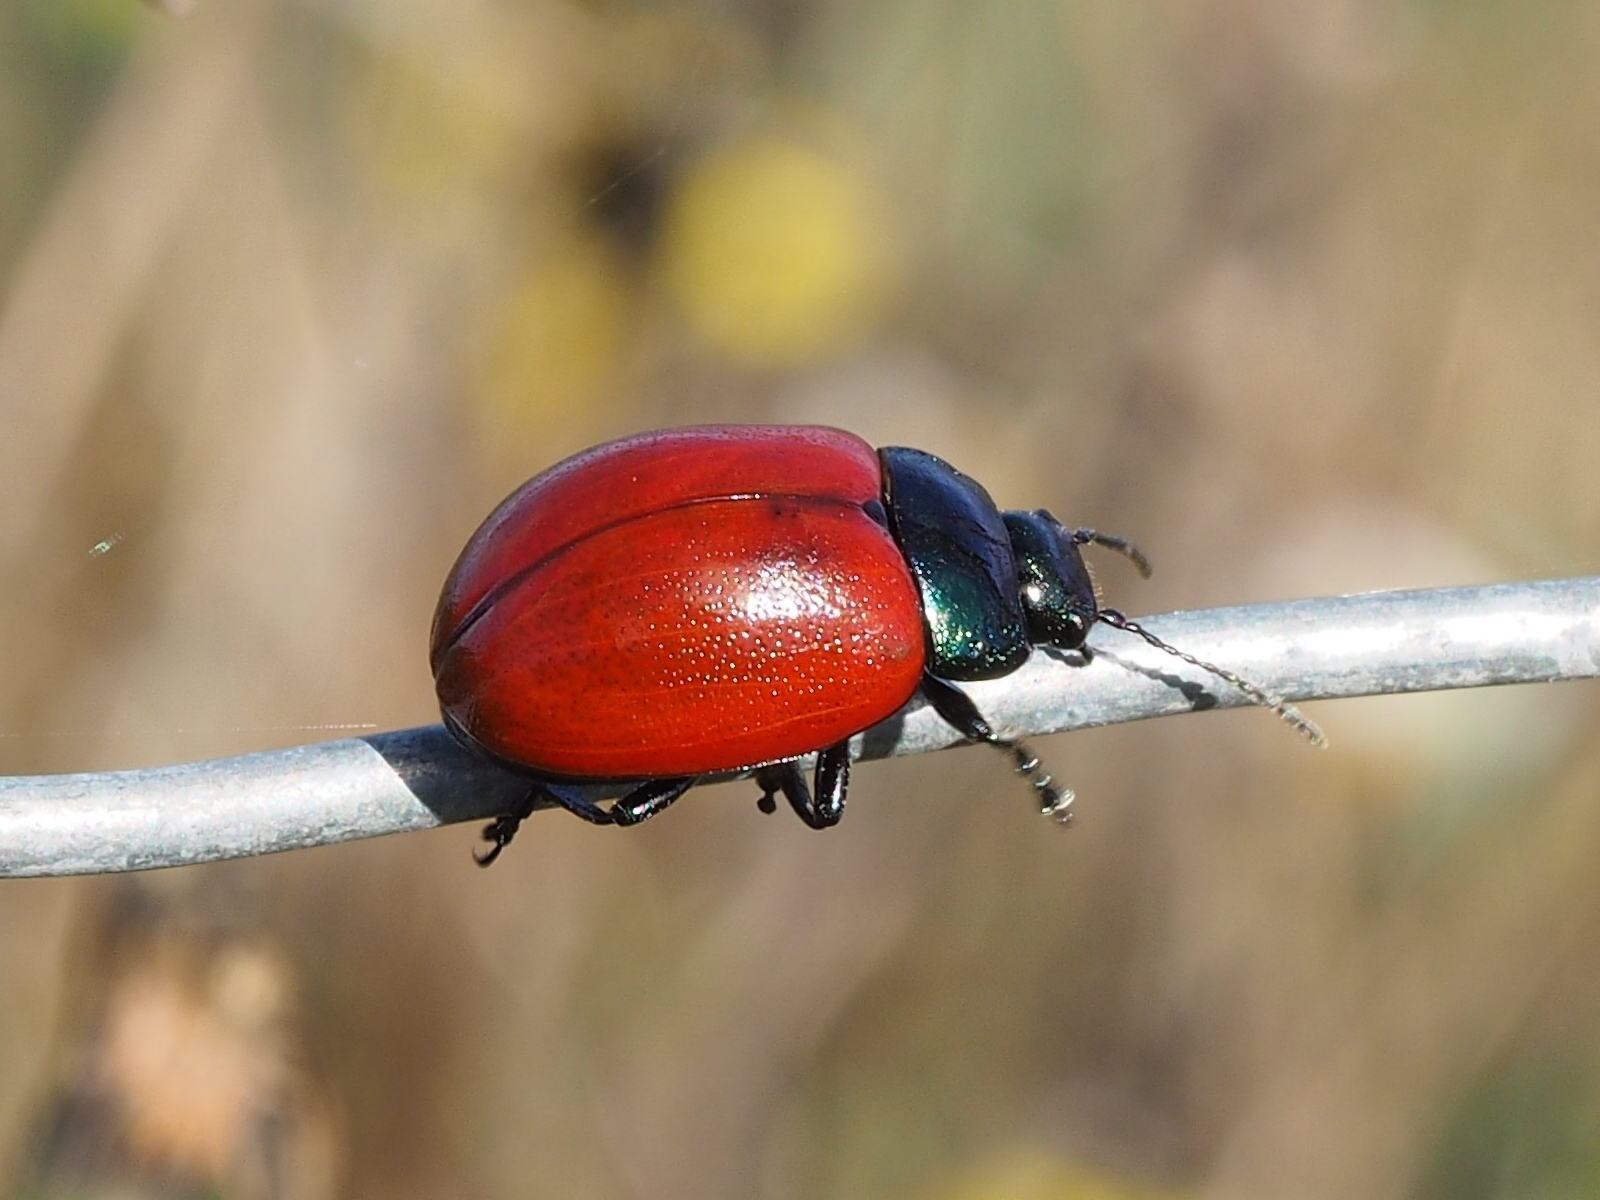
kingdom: Animalia
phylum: Arthropoda
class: Insecta
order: Coleoptera
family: Chrysomelidae
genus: Chrysolina
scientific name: Chrysolina grossa
